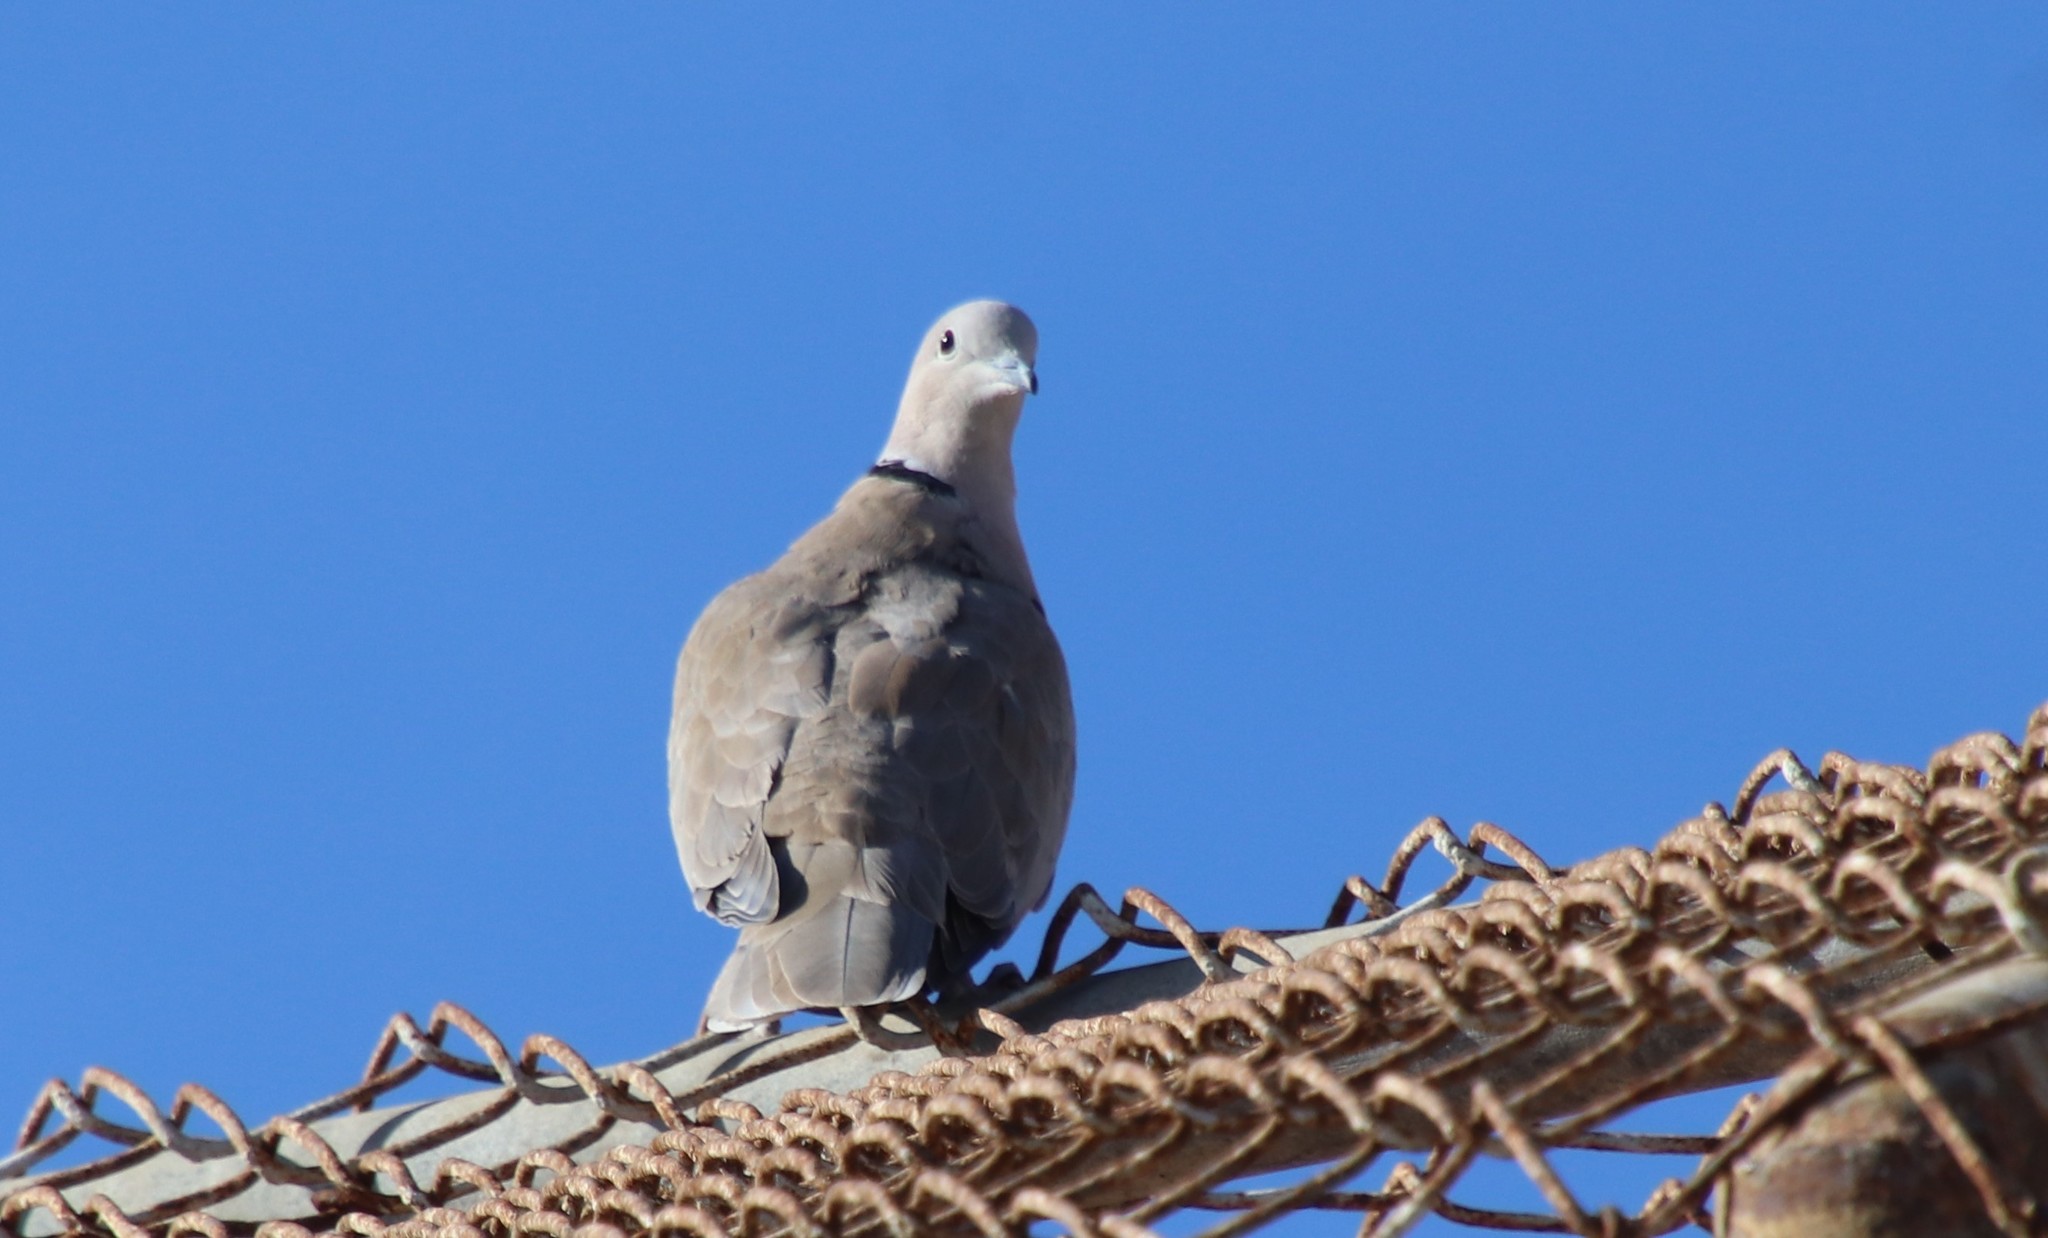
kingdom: Animalia
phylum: Chordata
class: Aves
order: Columbiformes
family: Columbidae
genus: Streptopelia
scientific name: Streptopelia decaocto
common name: Eurasian collared dove
